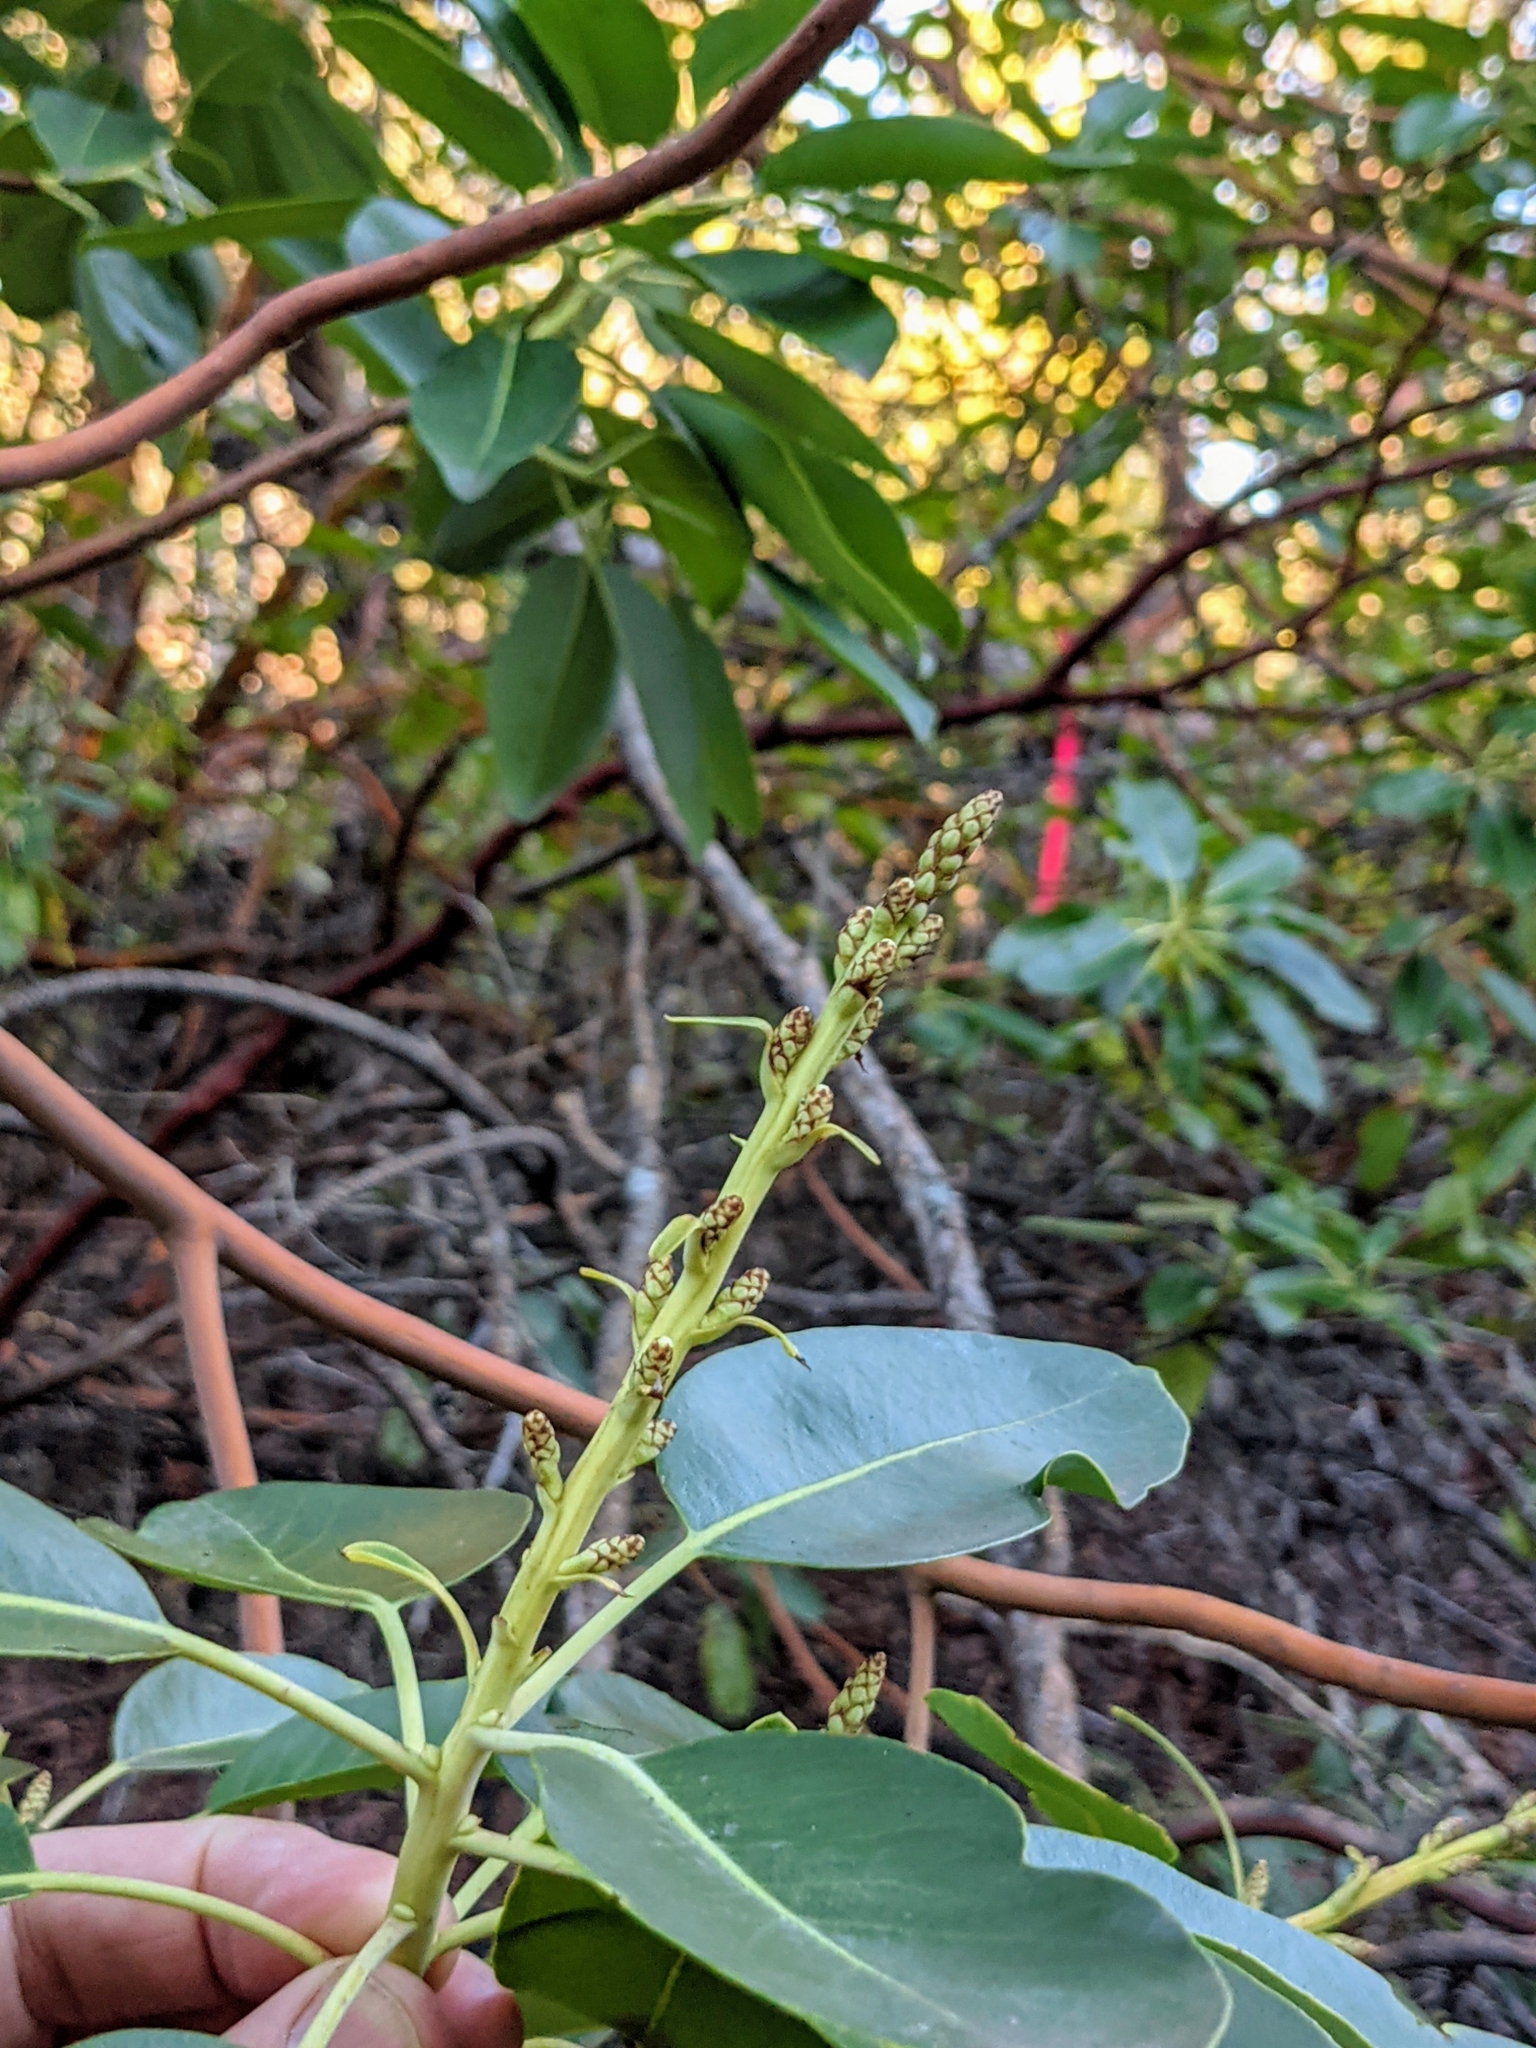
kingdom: Plantae
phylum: Tracheophyta
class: Magnoliopsida
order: Ericales
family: Ericaceae
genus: Arbutus
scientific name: Arbutus menziesii
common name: Pacific madrone
